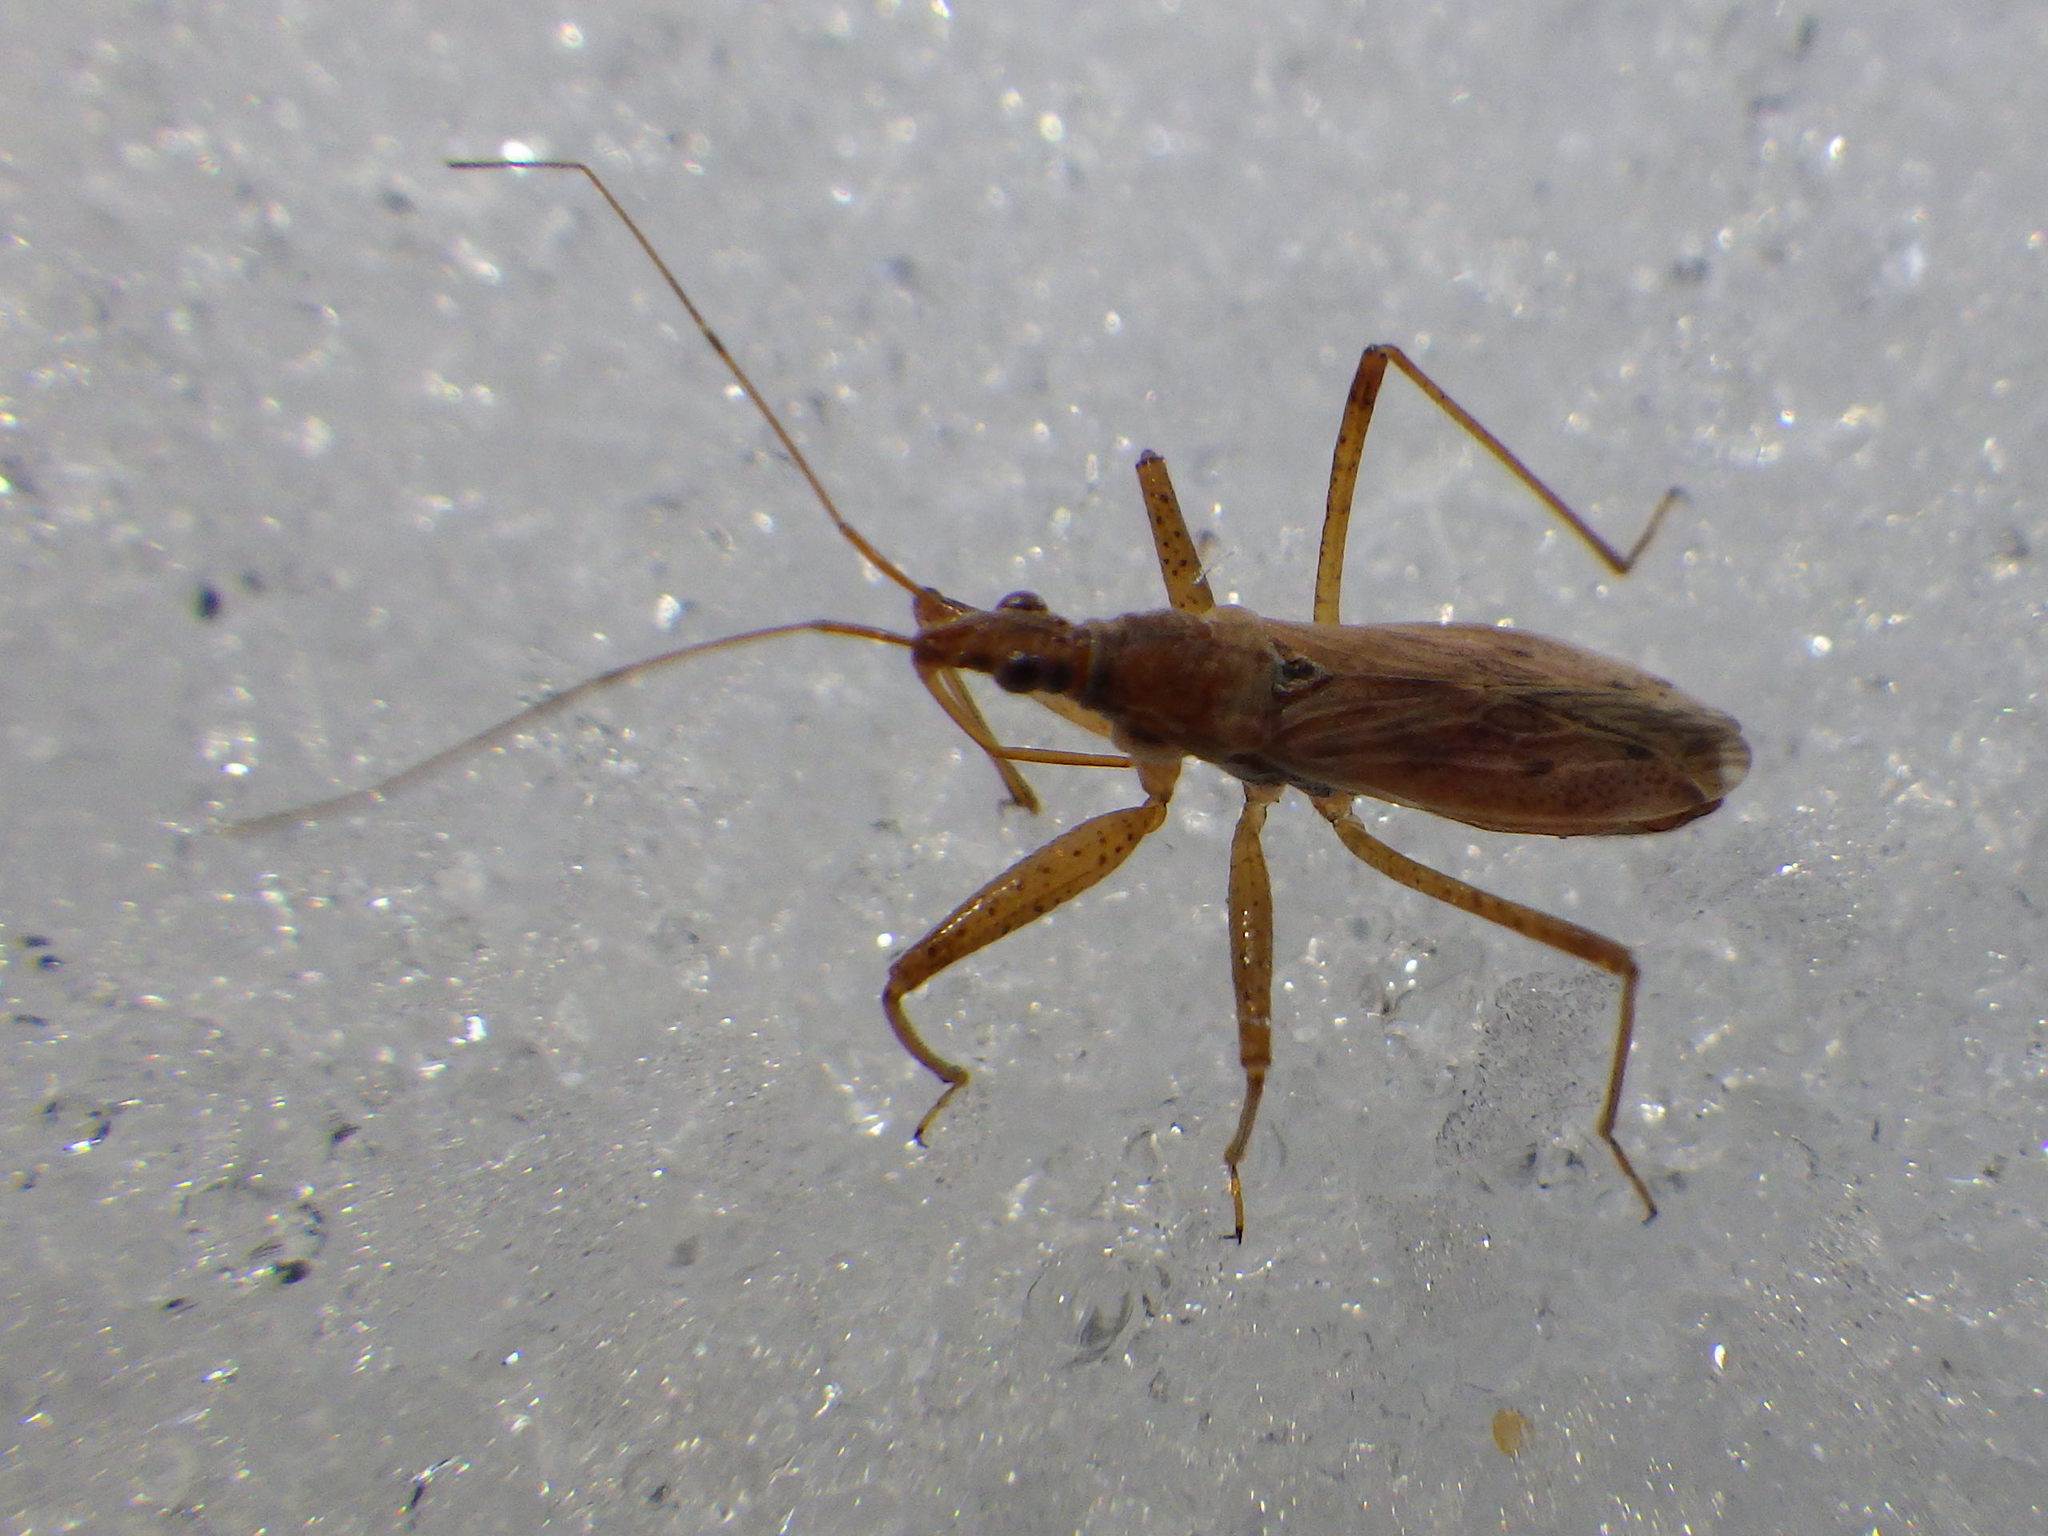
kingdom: Animalia
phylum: Arthropoda
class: Insecta
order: Hemiptera
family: Nabidae
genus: Nabis
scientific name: Nabis rufusculus
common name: Short-winged nabis
